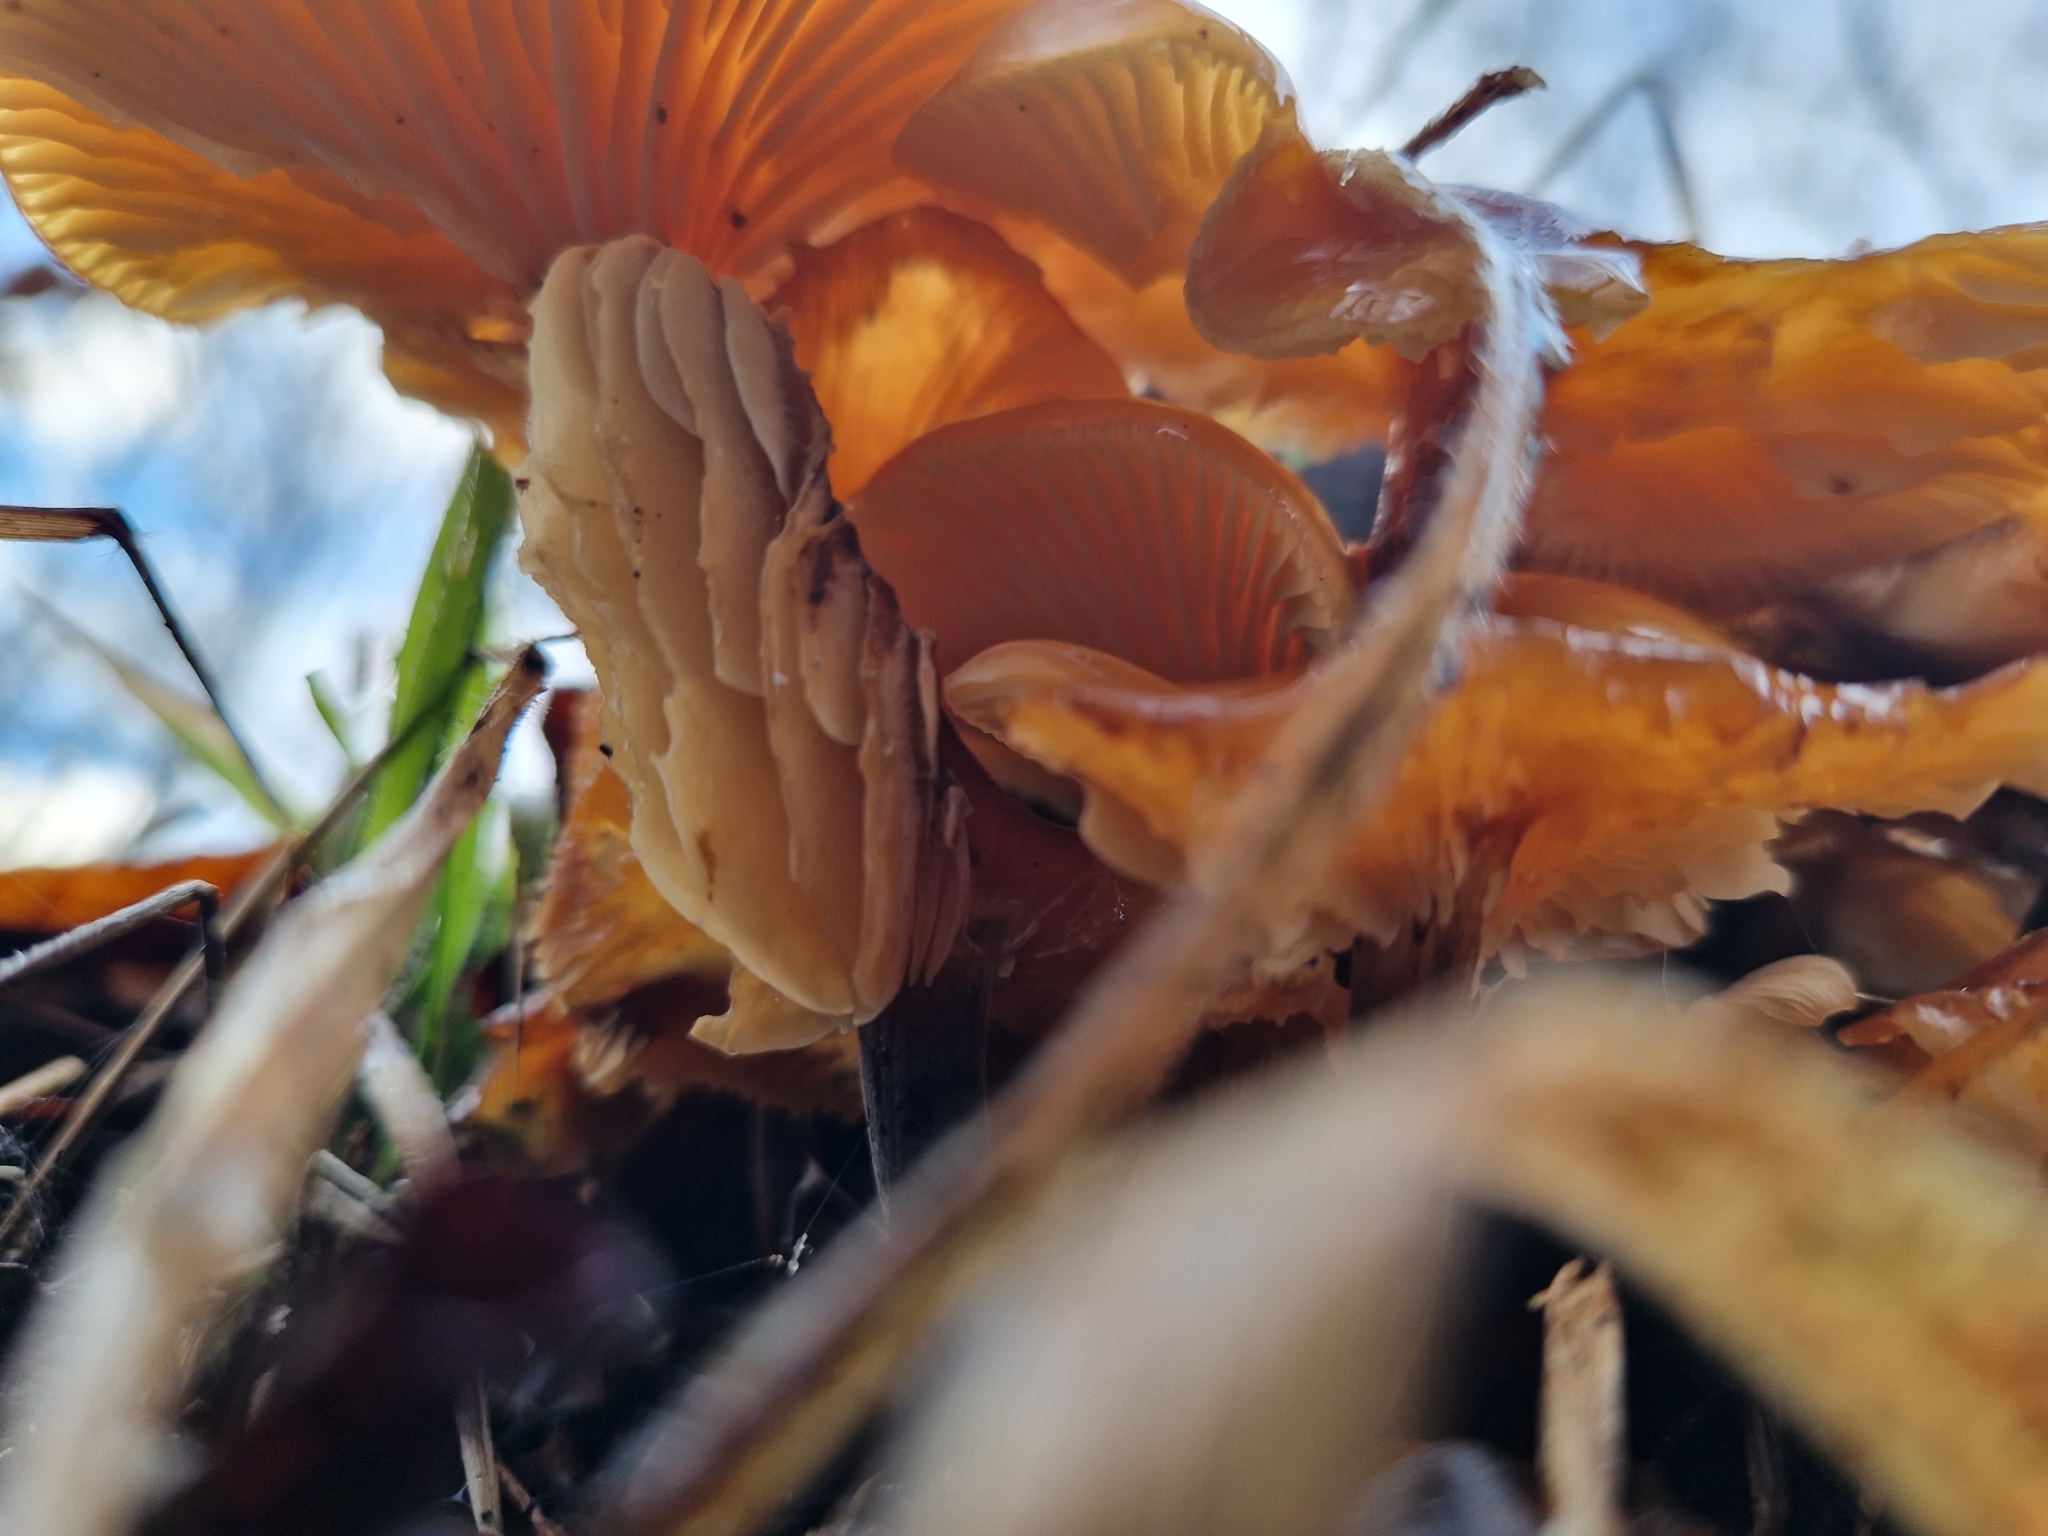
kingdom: Fungi
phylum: Basidiomycota
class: Agaricomycetes
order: Agaricales
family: Physalacriaceae
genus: Flammulina
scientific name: Flammulina
